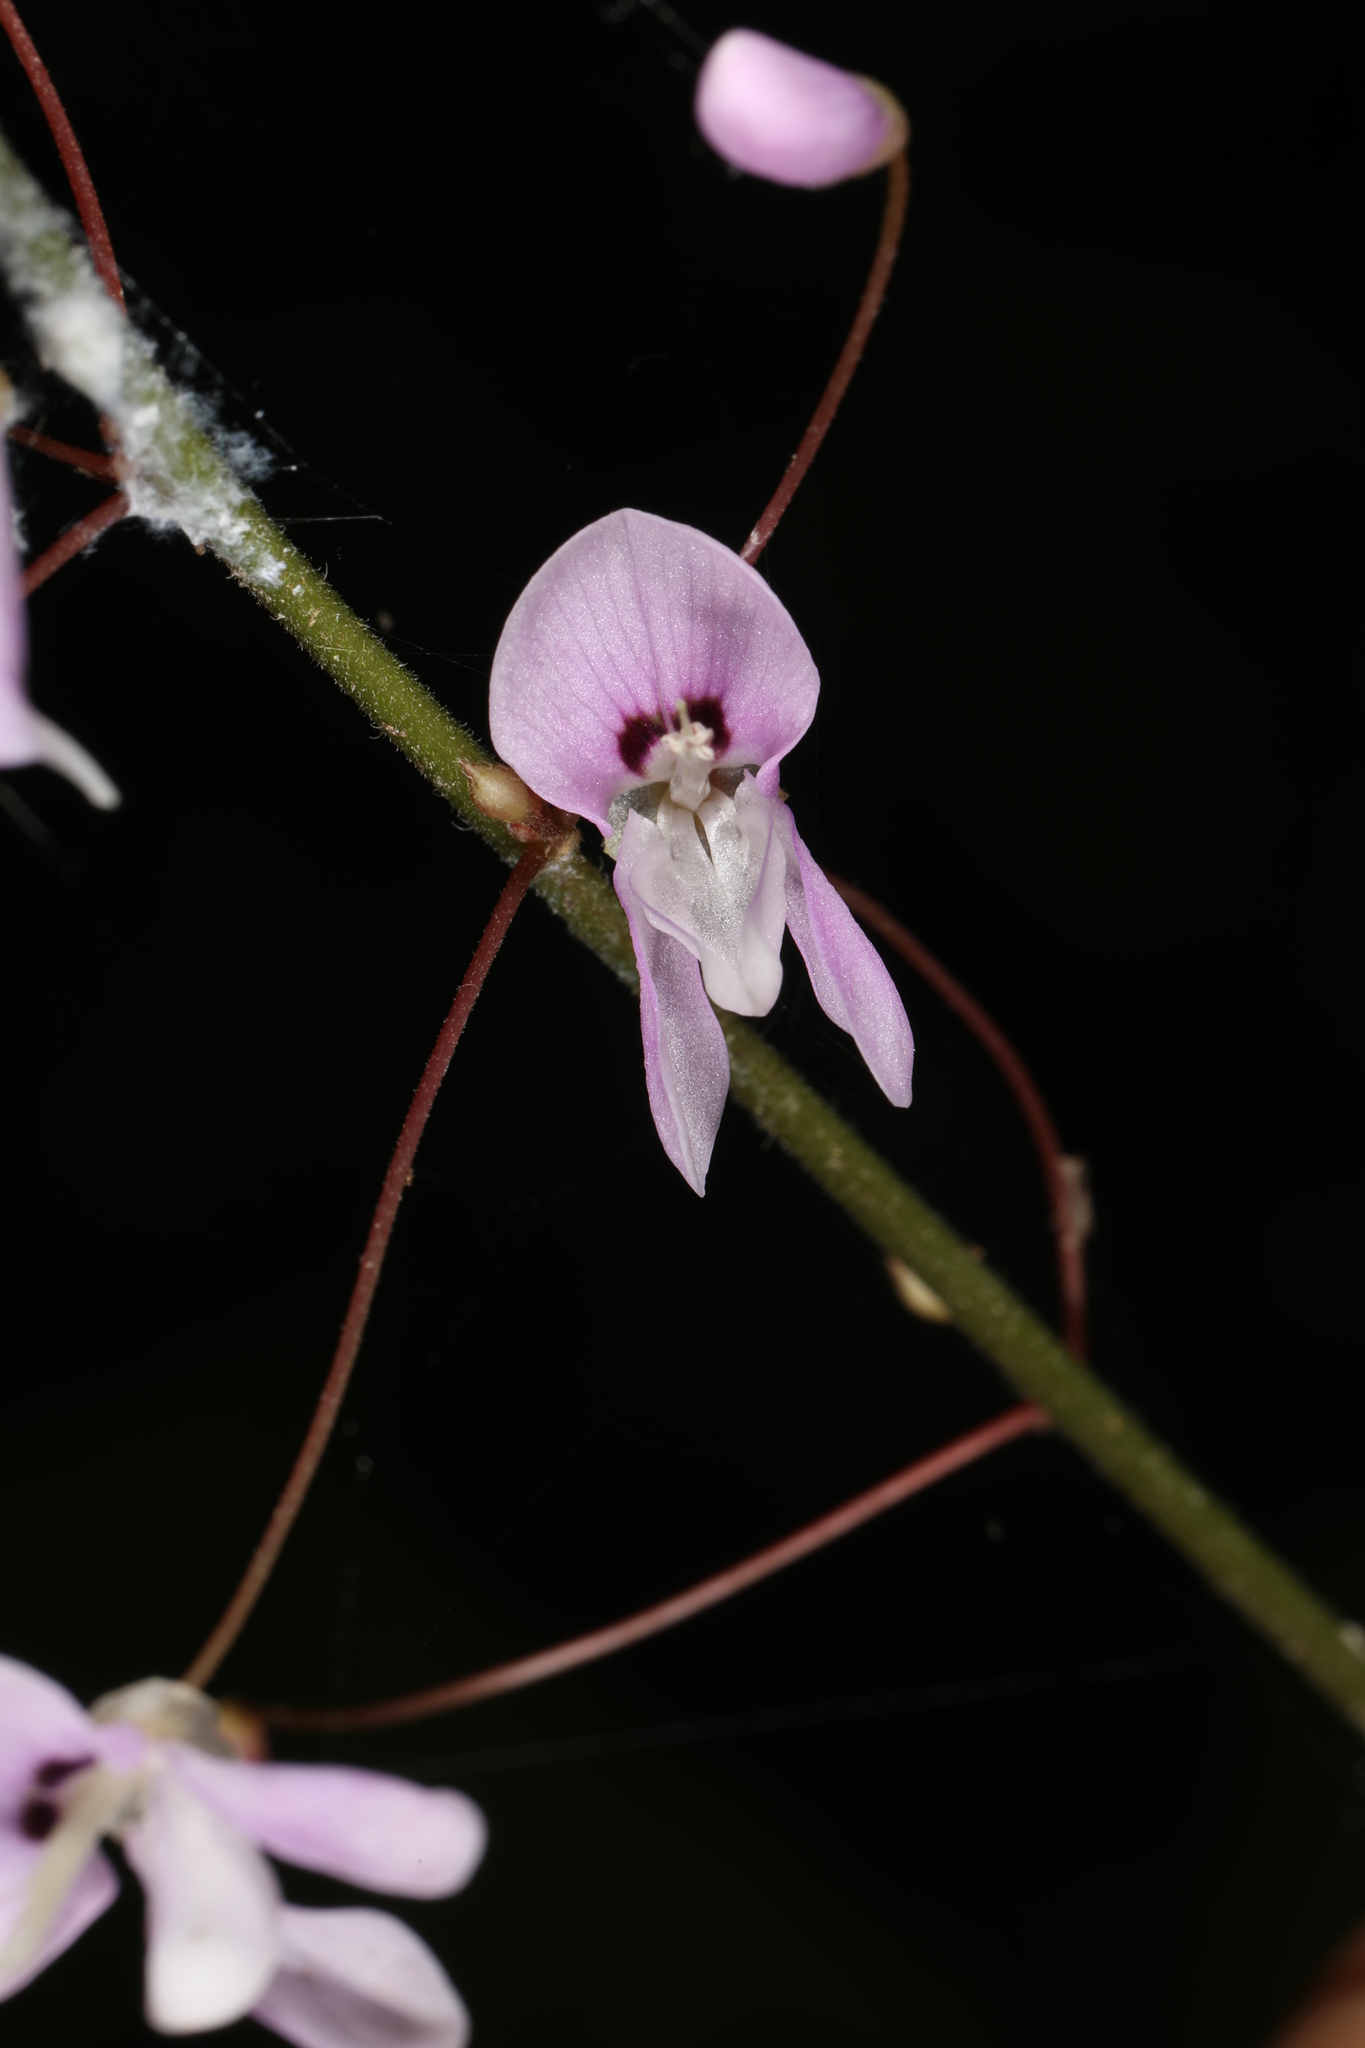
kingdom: Plantae
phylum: Tracheophyta
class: Magnoliopsida
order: Fabales
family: Fabaceae
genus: Hylodesmum
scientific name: Hylodesmum nudiflorum
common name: Bare-stemmed tick-trefoil
